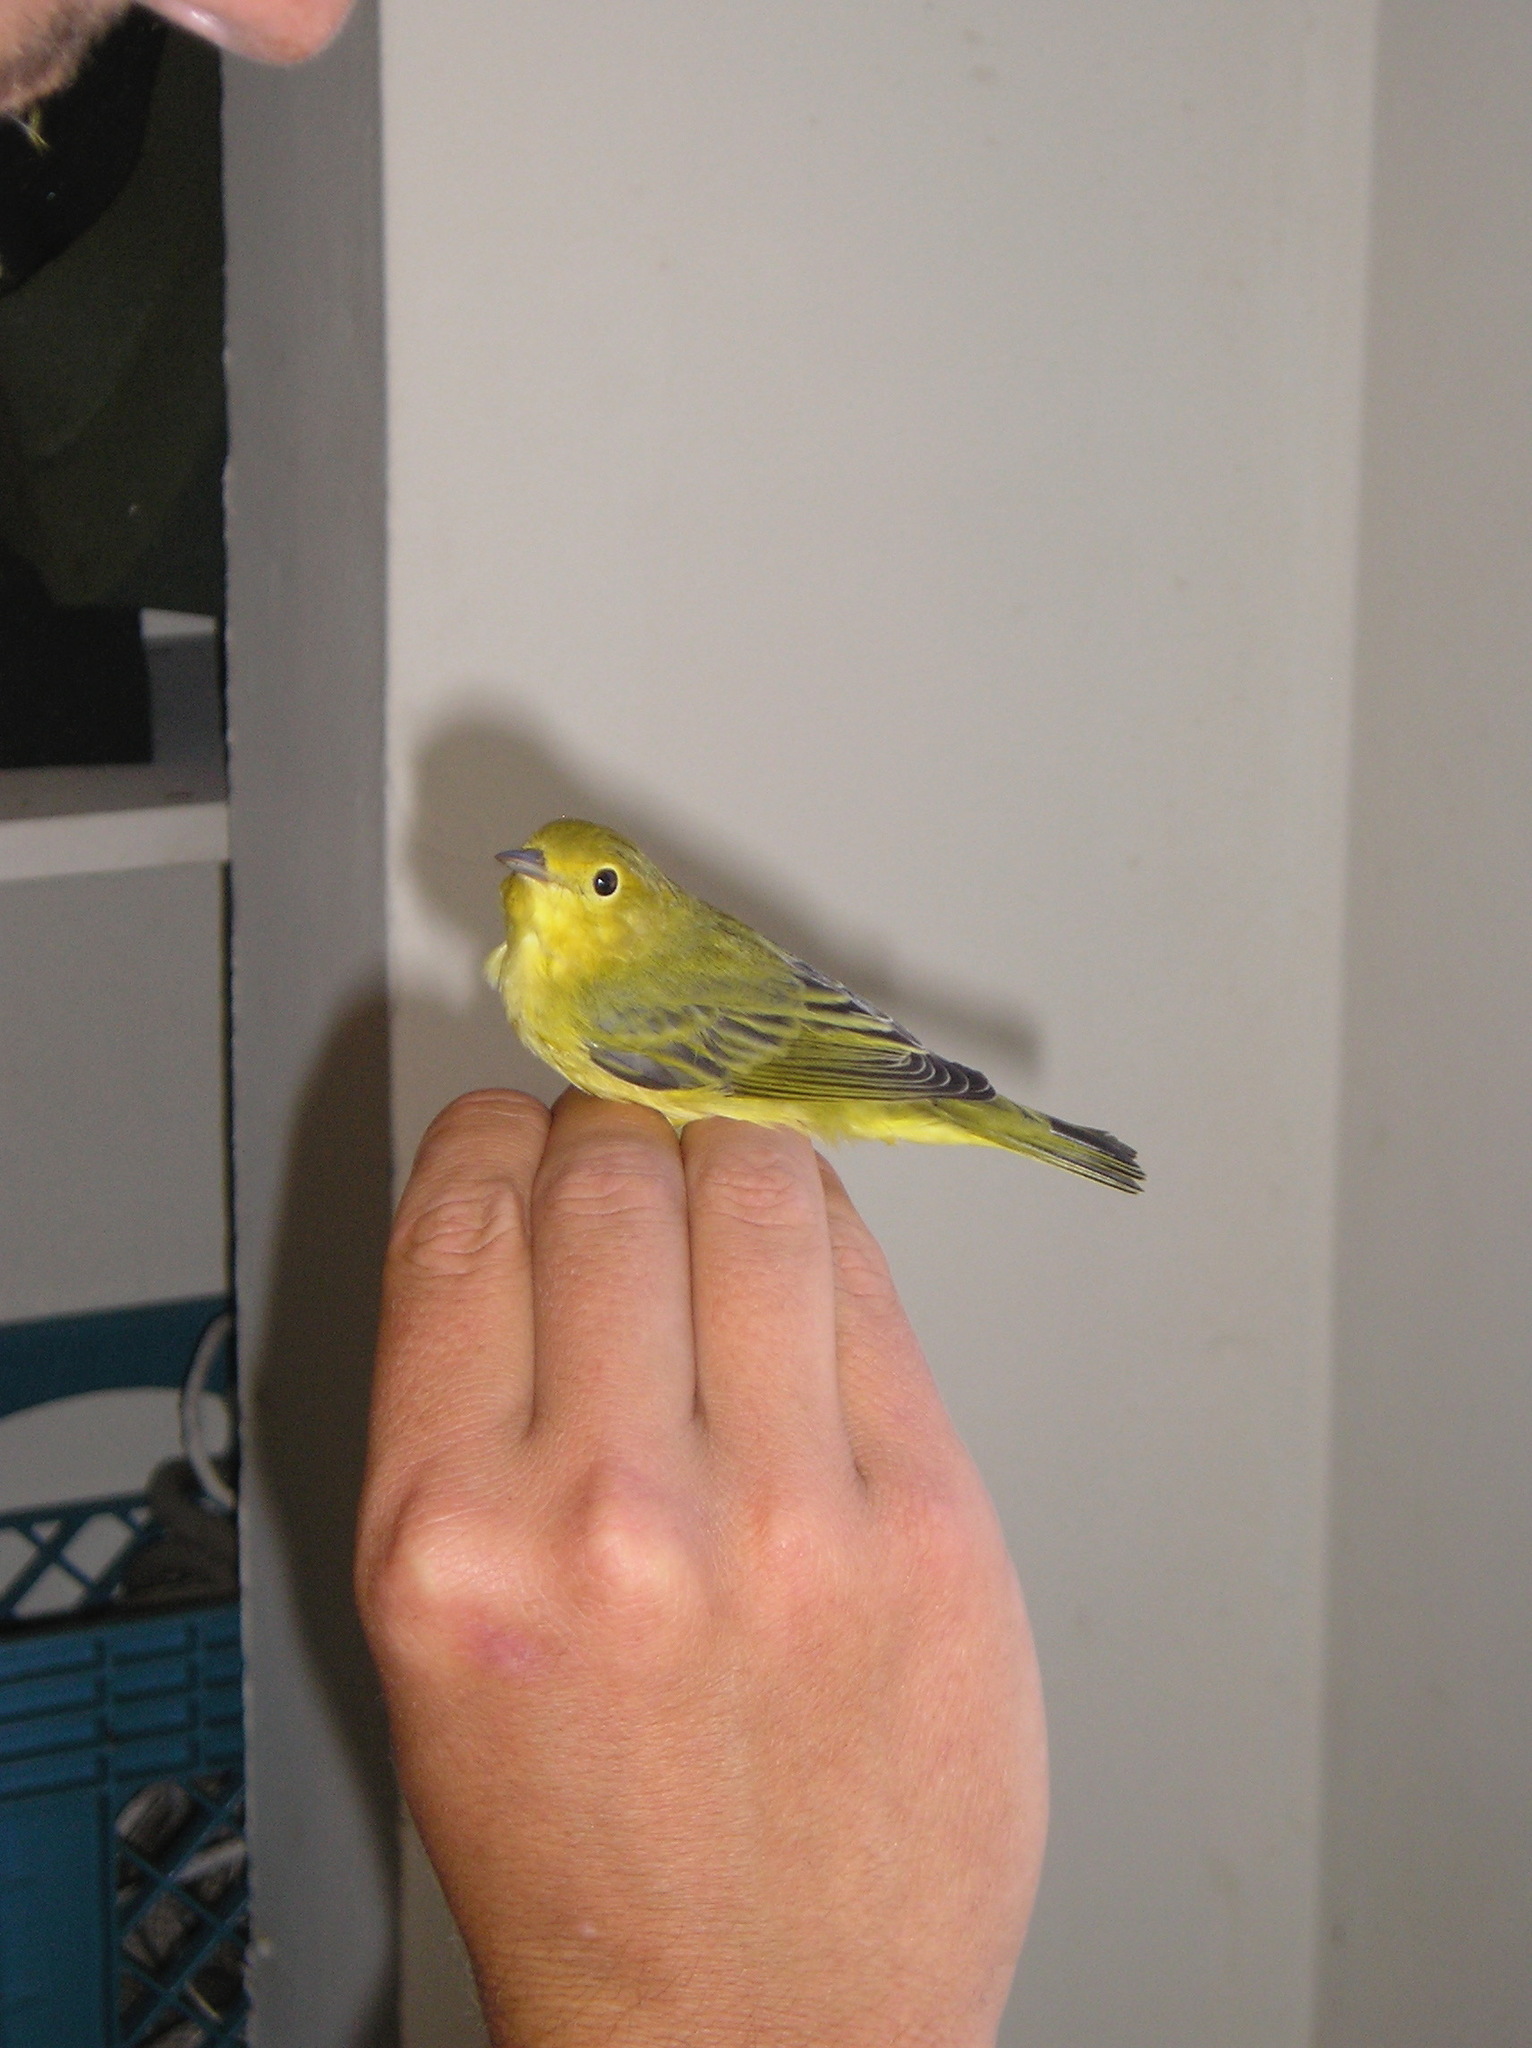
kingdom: Animalia
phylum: Chordata
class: Aves
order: Passeriformes
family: Parulidae
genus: Setophaga
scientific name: Setophaga petechia
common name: Yellow warbler
